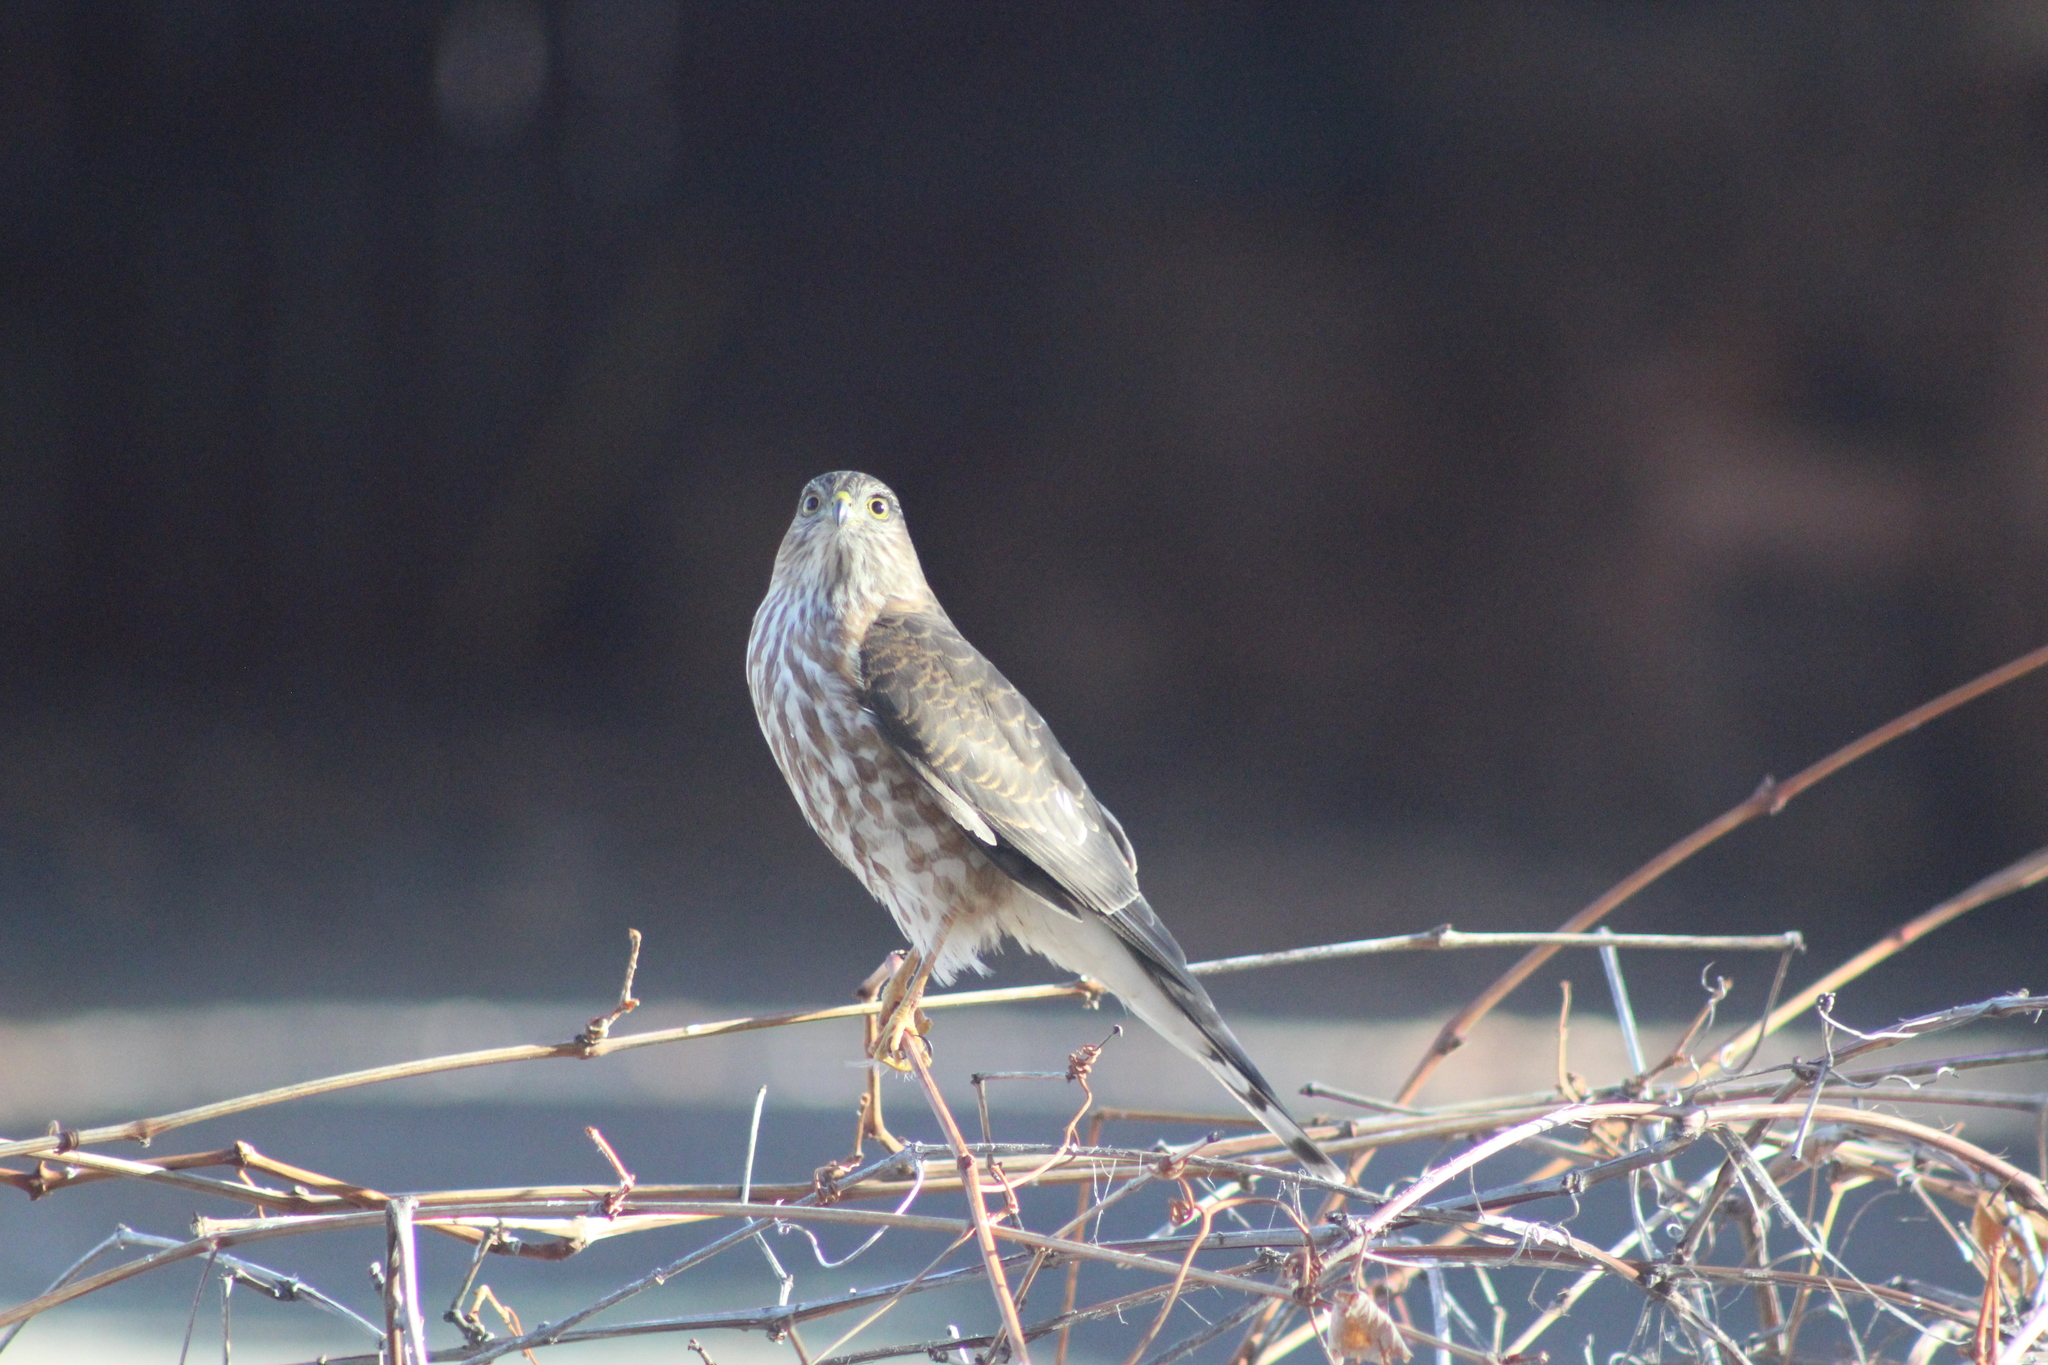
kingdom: Animalia
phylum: Chordata
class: Aves
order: Accipitriformes
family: Accipitridae
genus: Accipiter
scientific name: Accipiter striatus
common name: Sharp-shinned hawk
